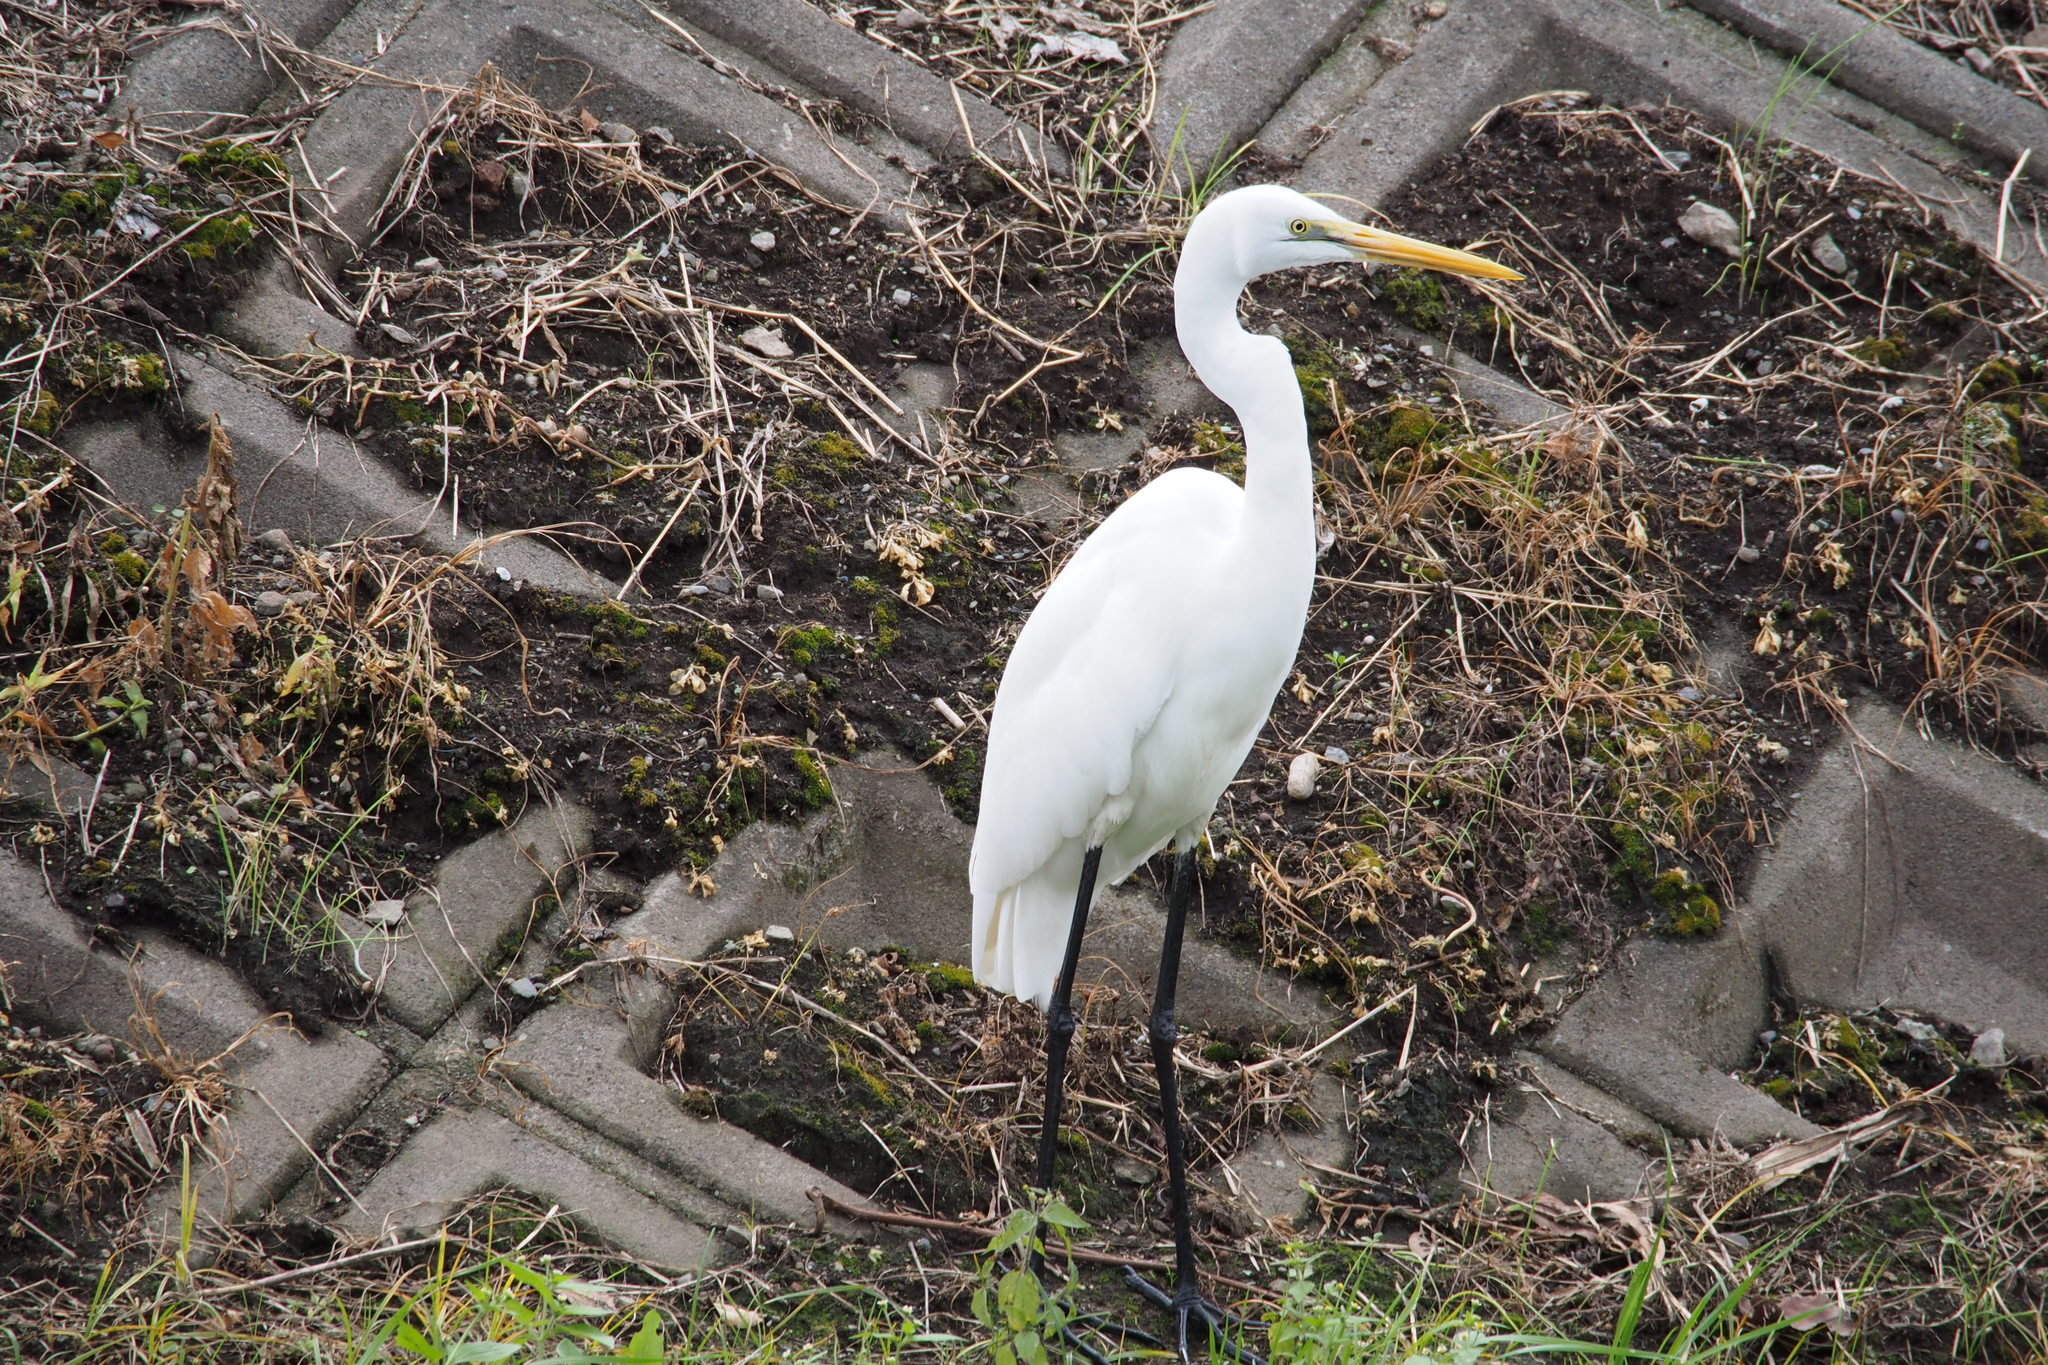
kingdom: Animalia
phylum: Chordata
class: Aves
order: Pelecaniformes
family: Ardeidae
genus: Ardea
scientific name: Ardea alba
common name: Great egret
